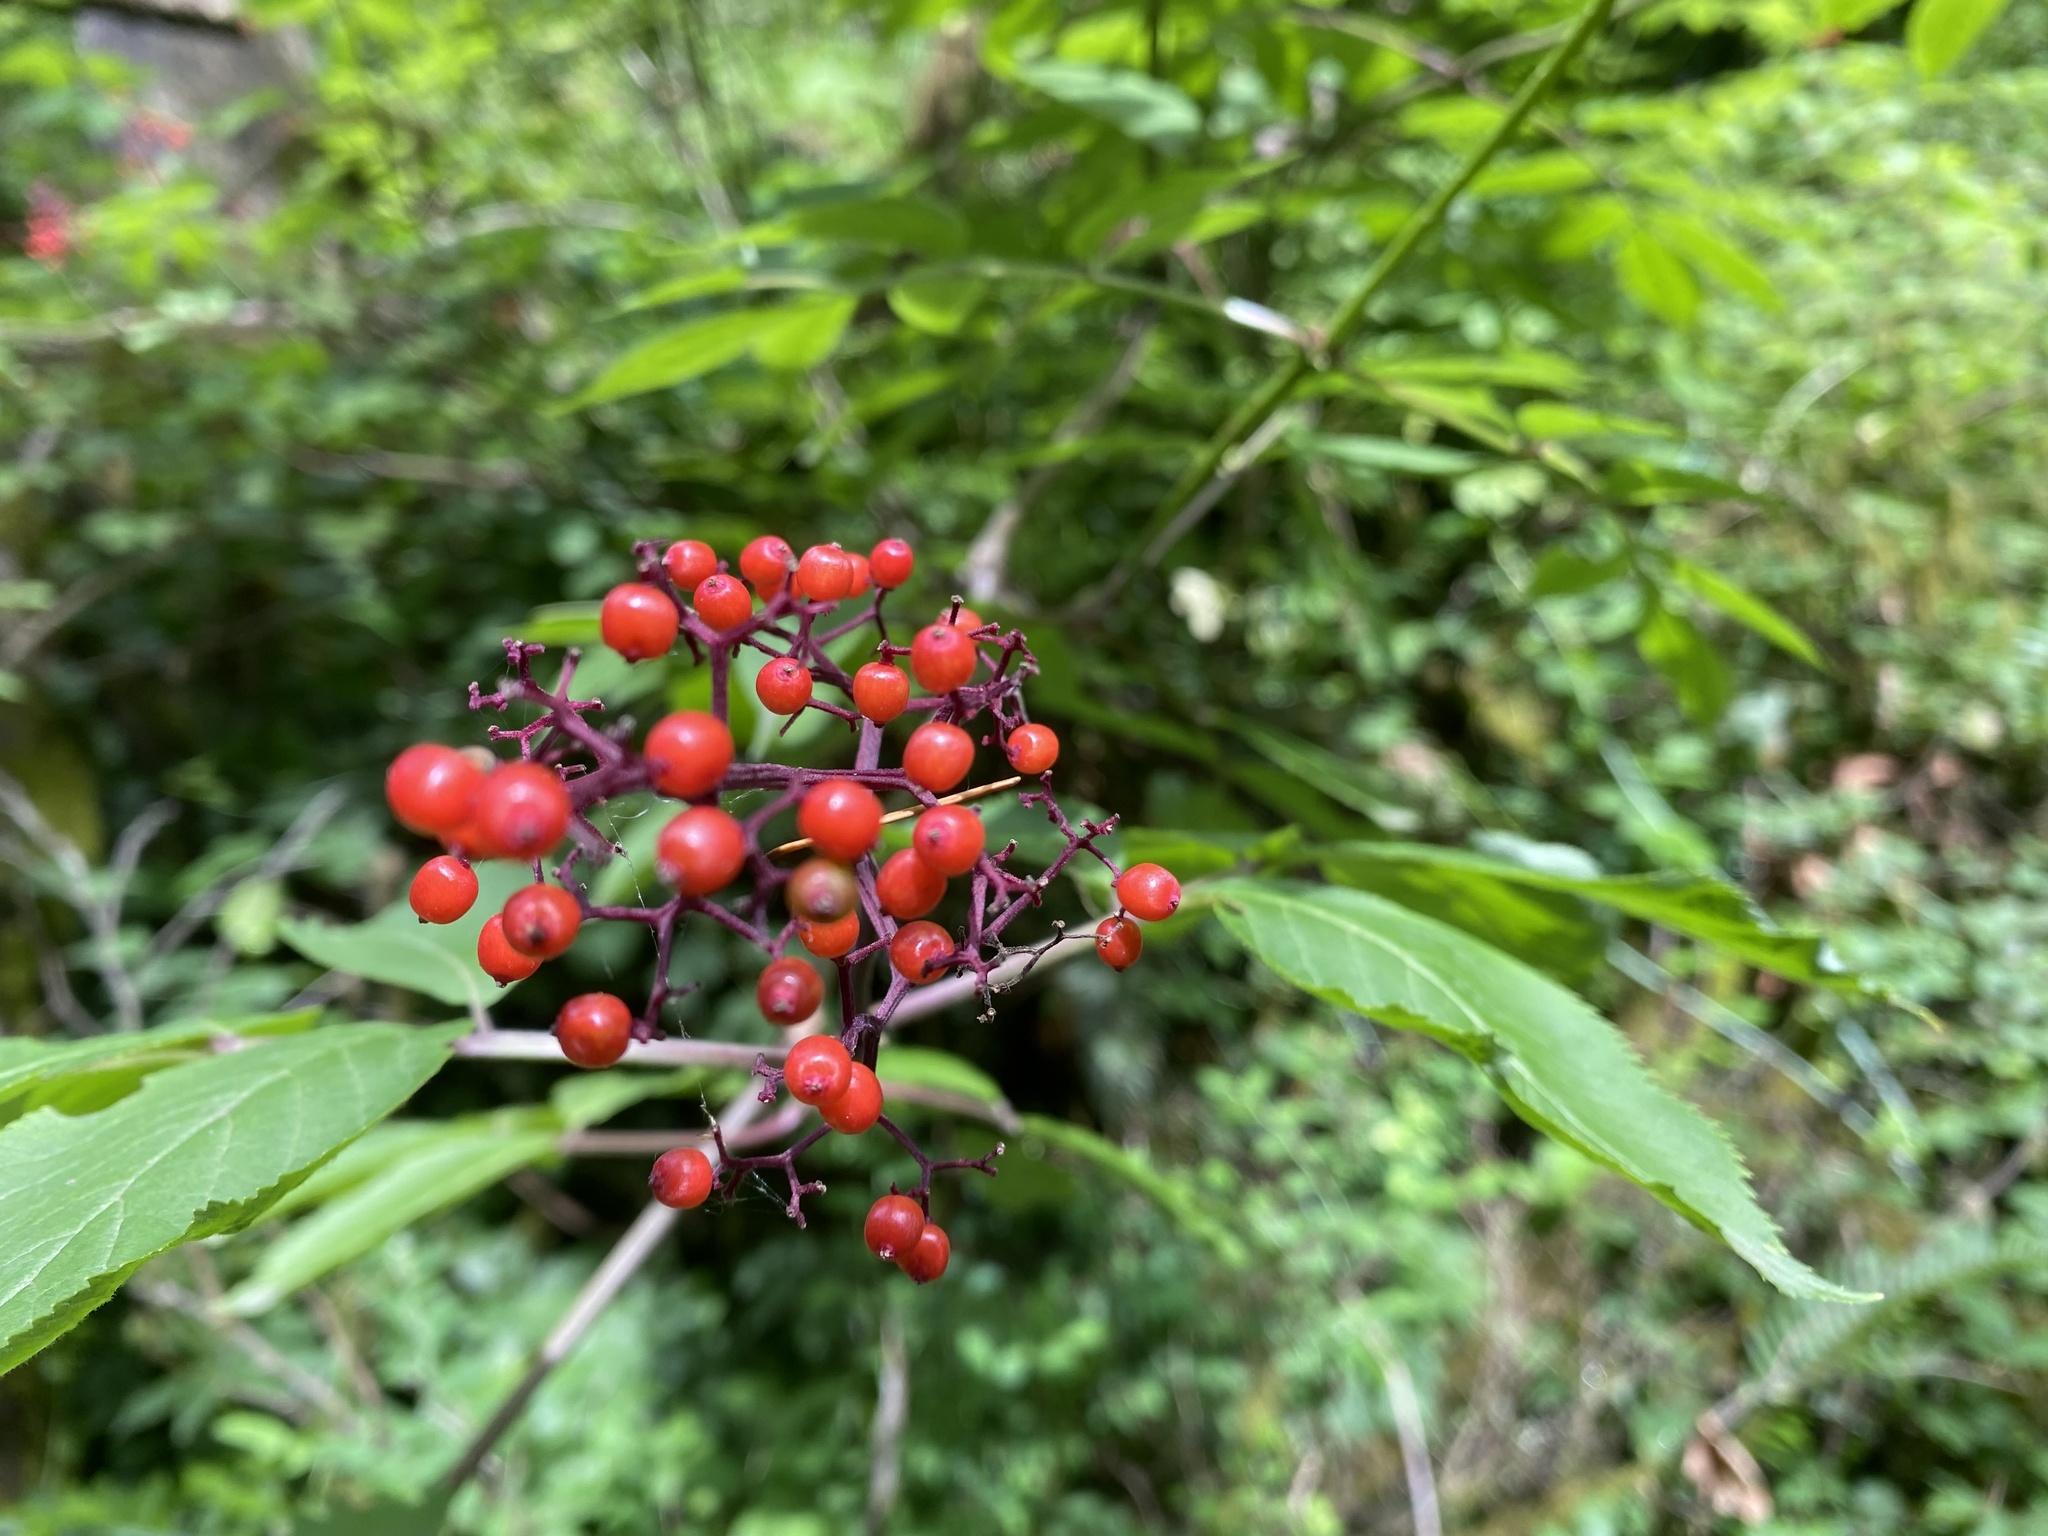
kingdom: Plantae
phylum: Tracheophyta
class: Magnoliopsida
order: Dipsacales
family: Viburnaceae
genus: Sambucus
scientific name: Sambucus racemosa
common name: Red-berried elder
